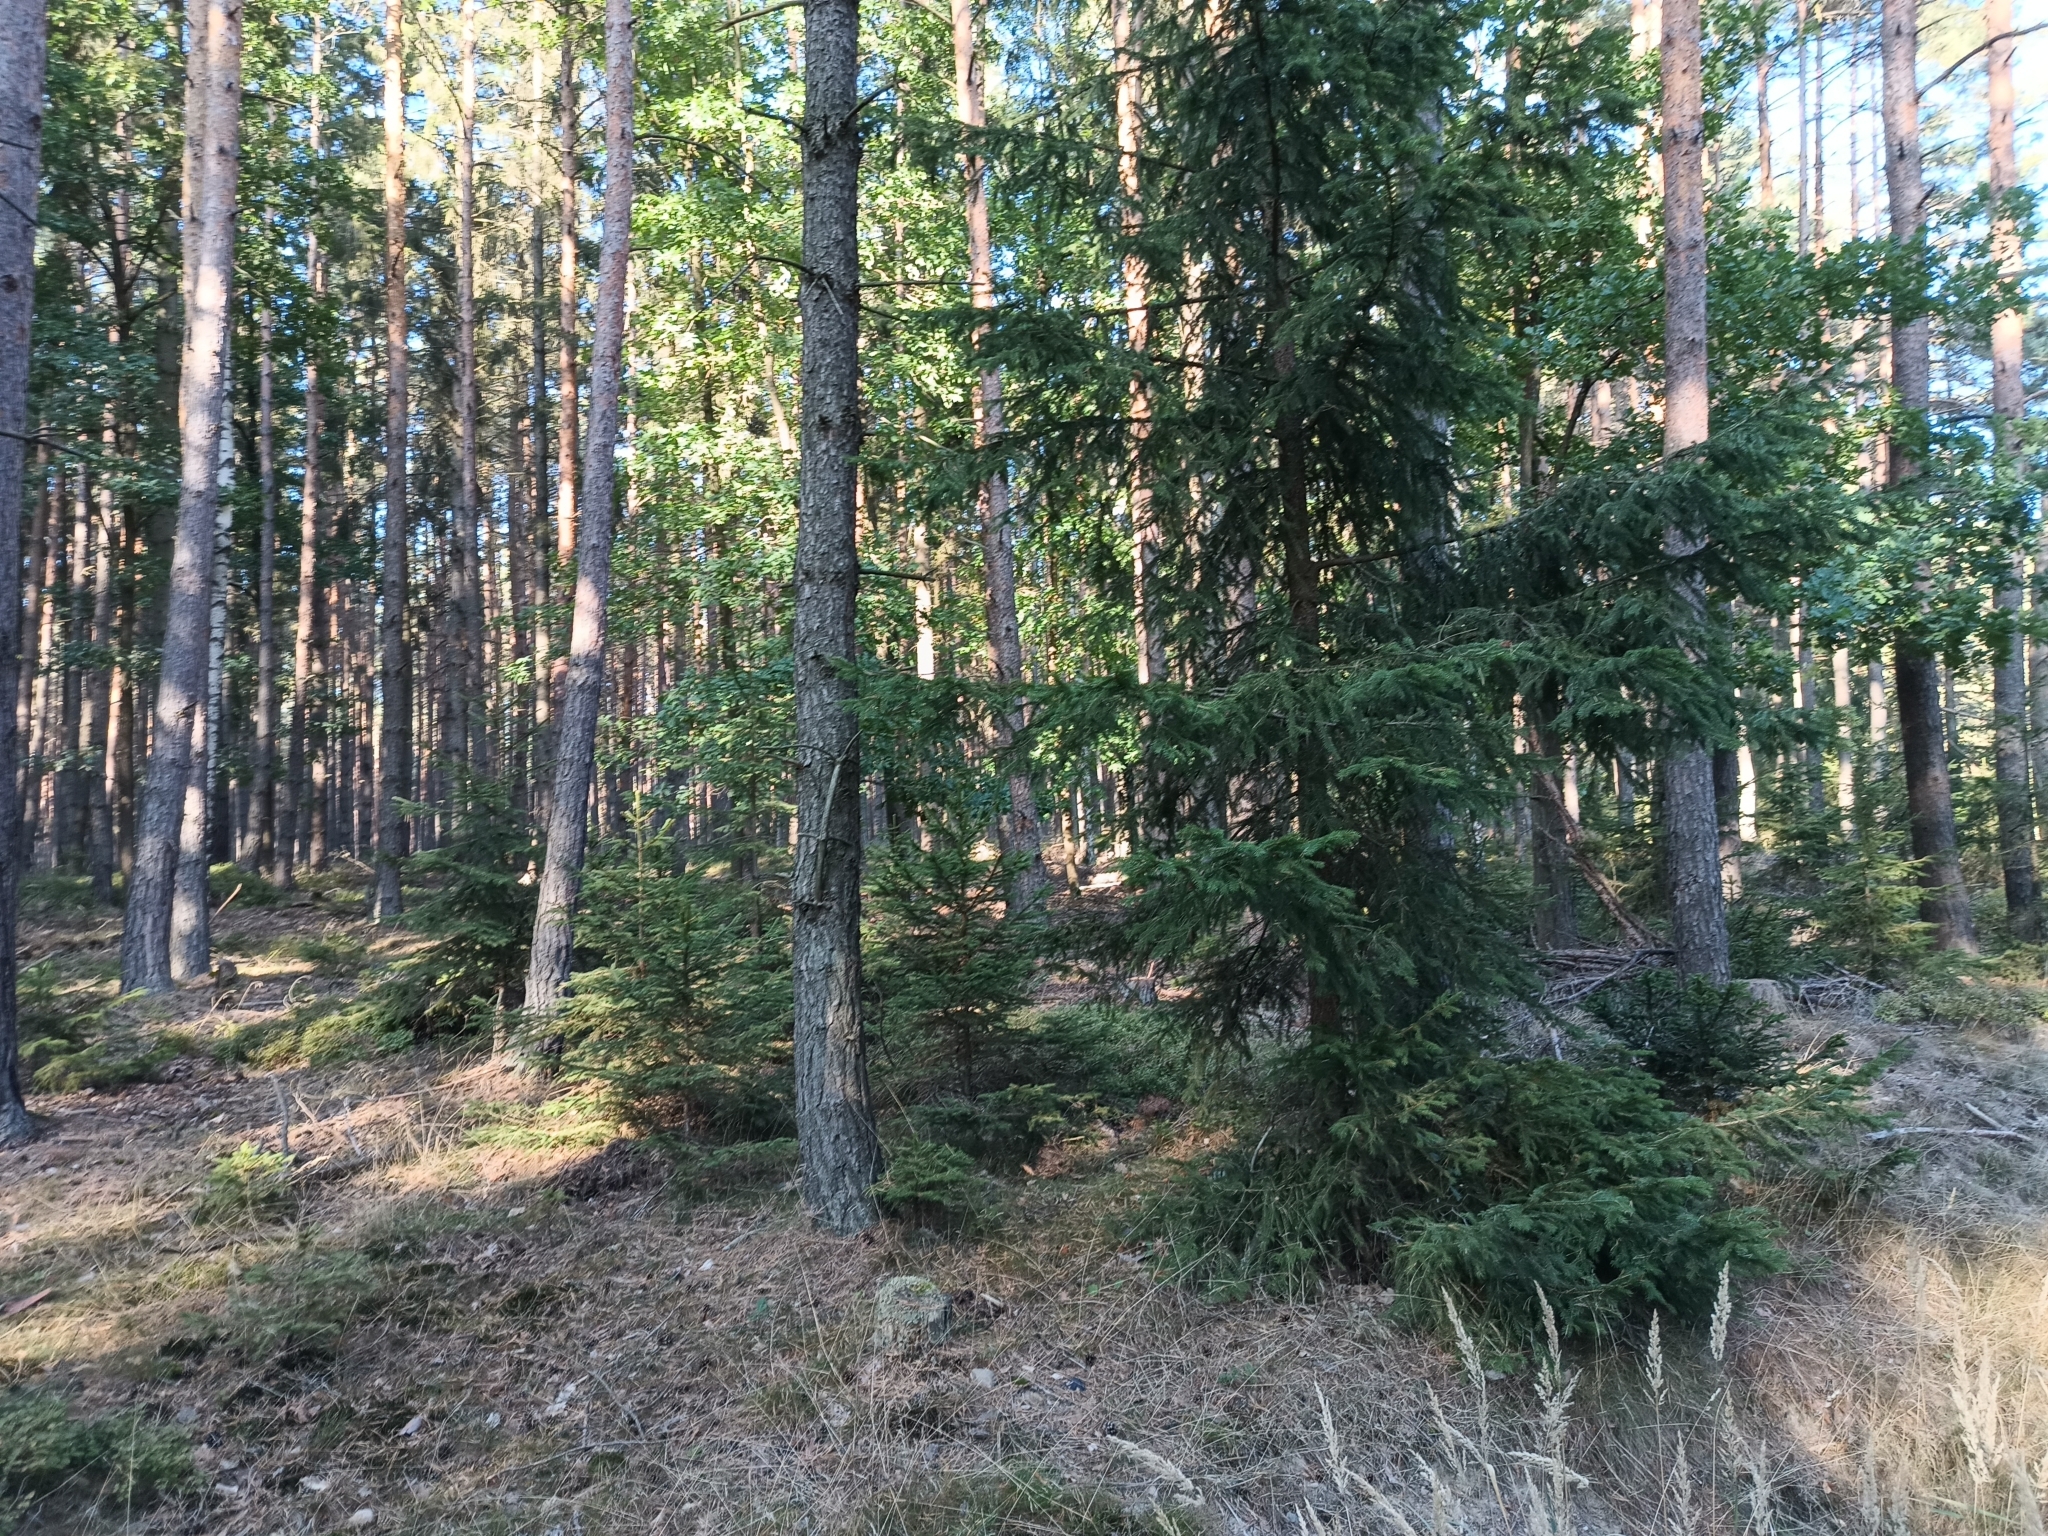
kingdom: Plantae
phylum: Tracheophyta
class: Pinopsida
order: Pinales
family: Pinaceae
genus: Picea
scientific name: Picea abies
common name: Norway spruce
